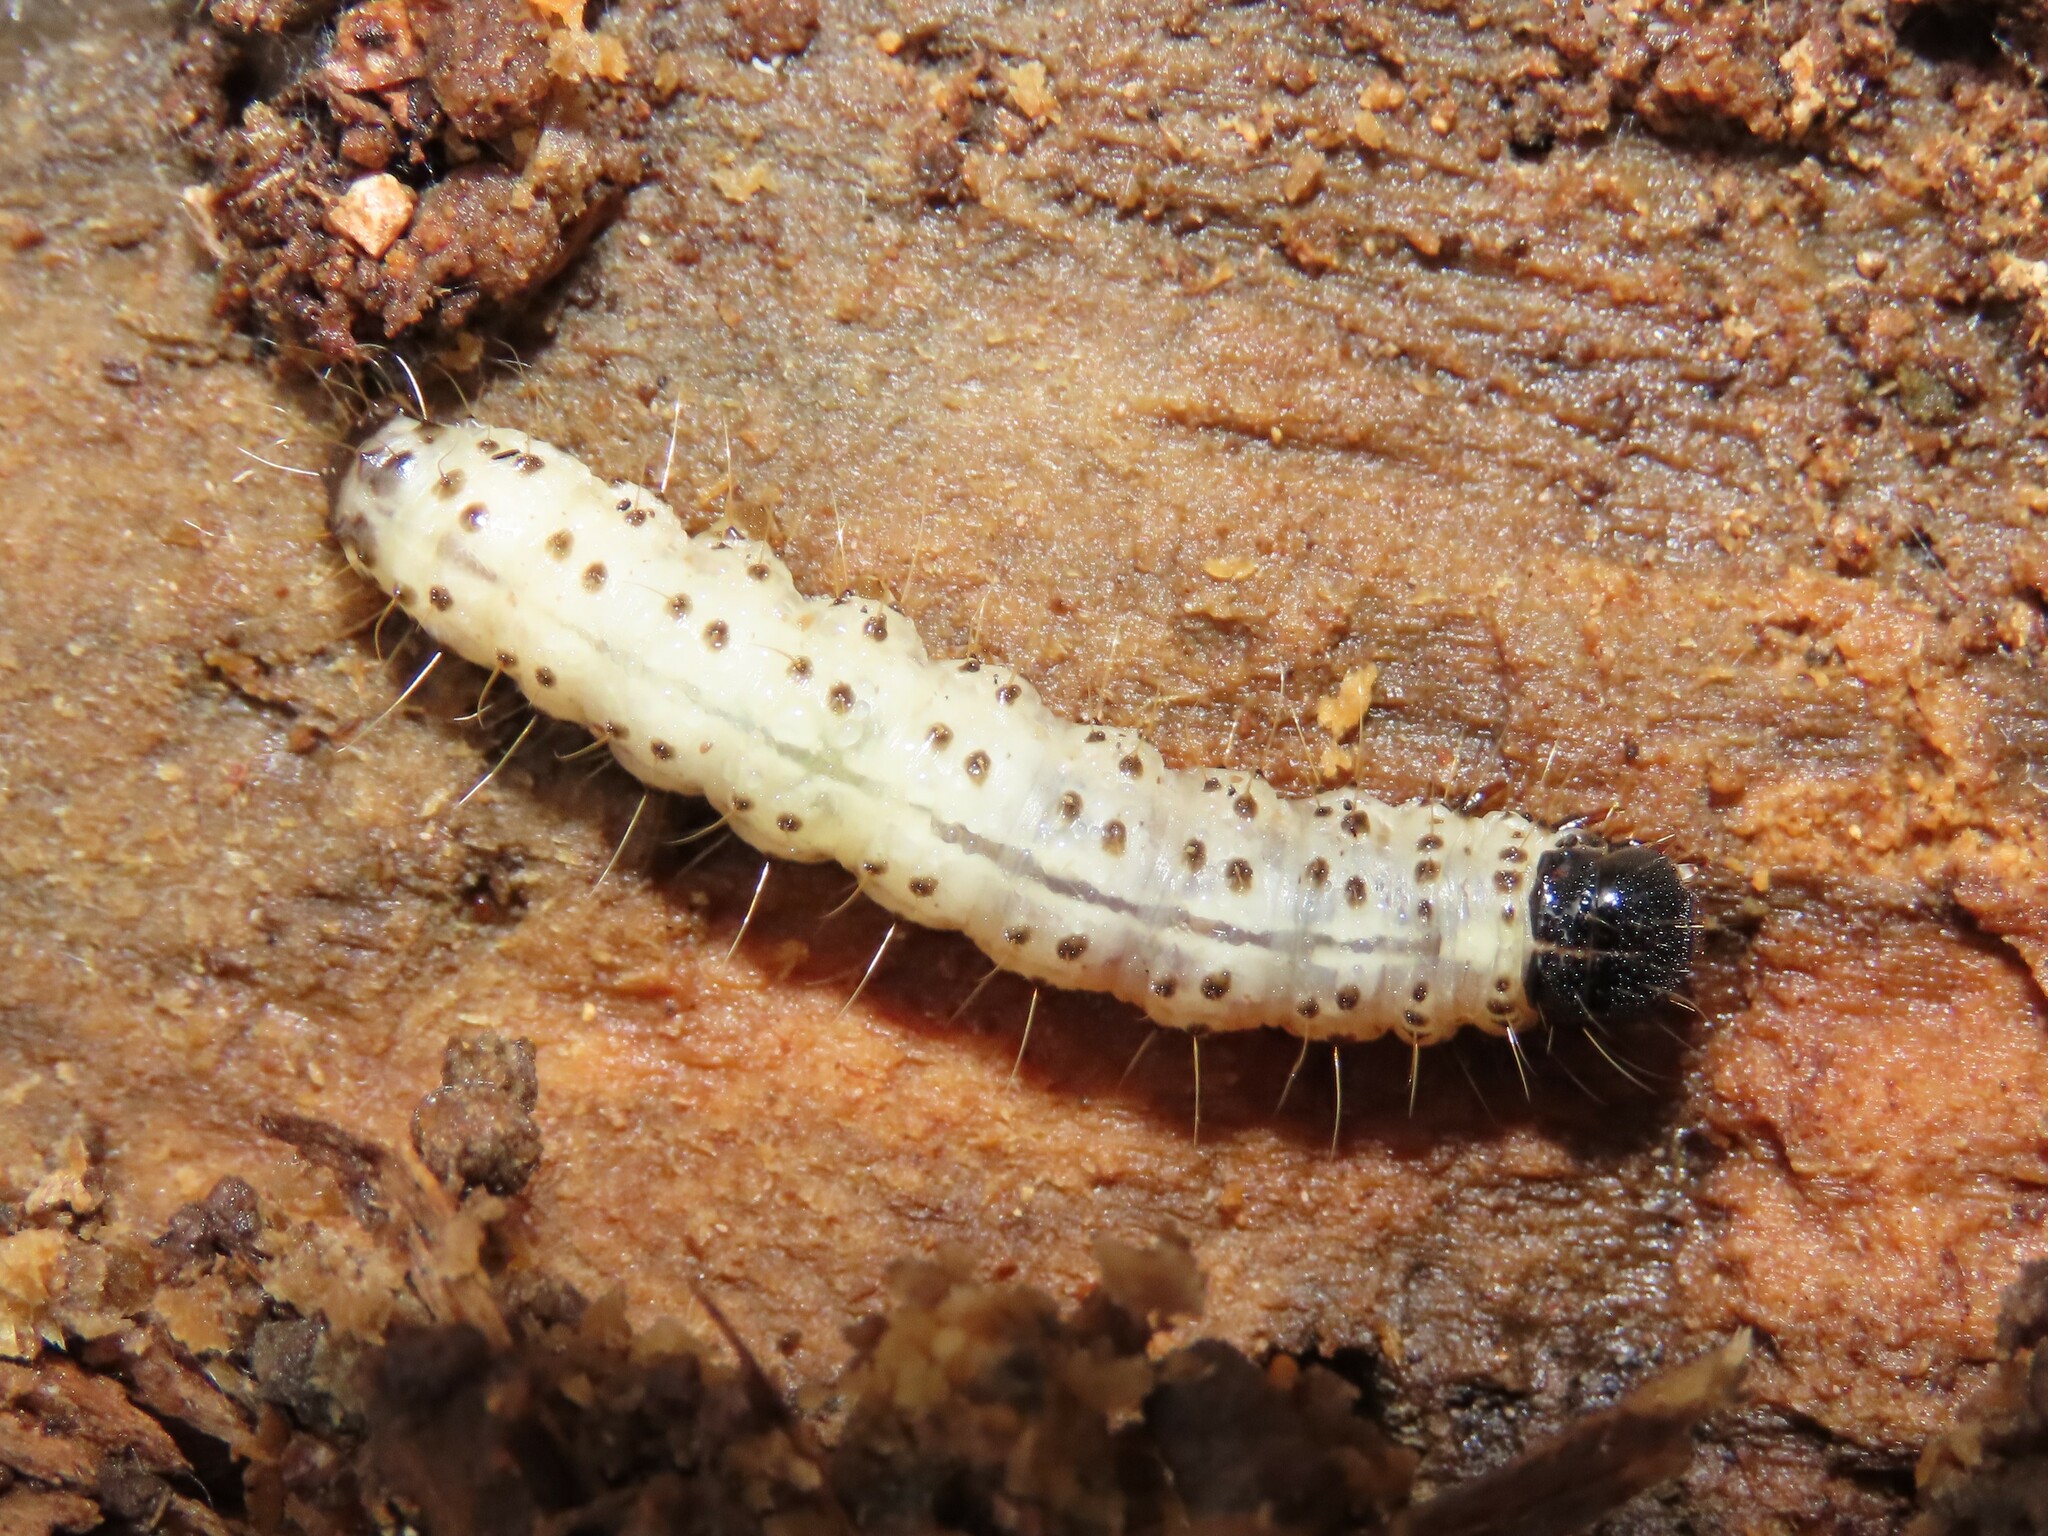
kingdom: Animalia
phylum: Arthropoda
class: Insecta
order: Lepidoptera
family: Erebidae
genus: Scolecocampa
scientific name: Scolecocampa liburna
